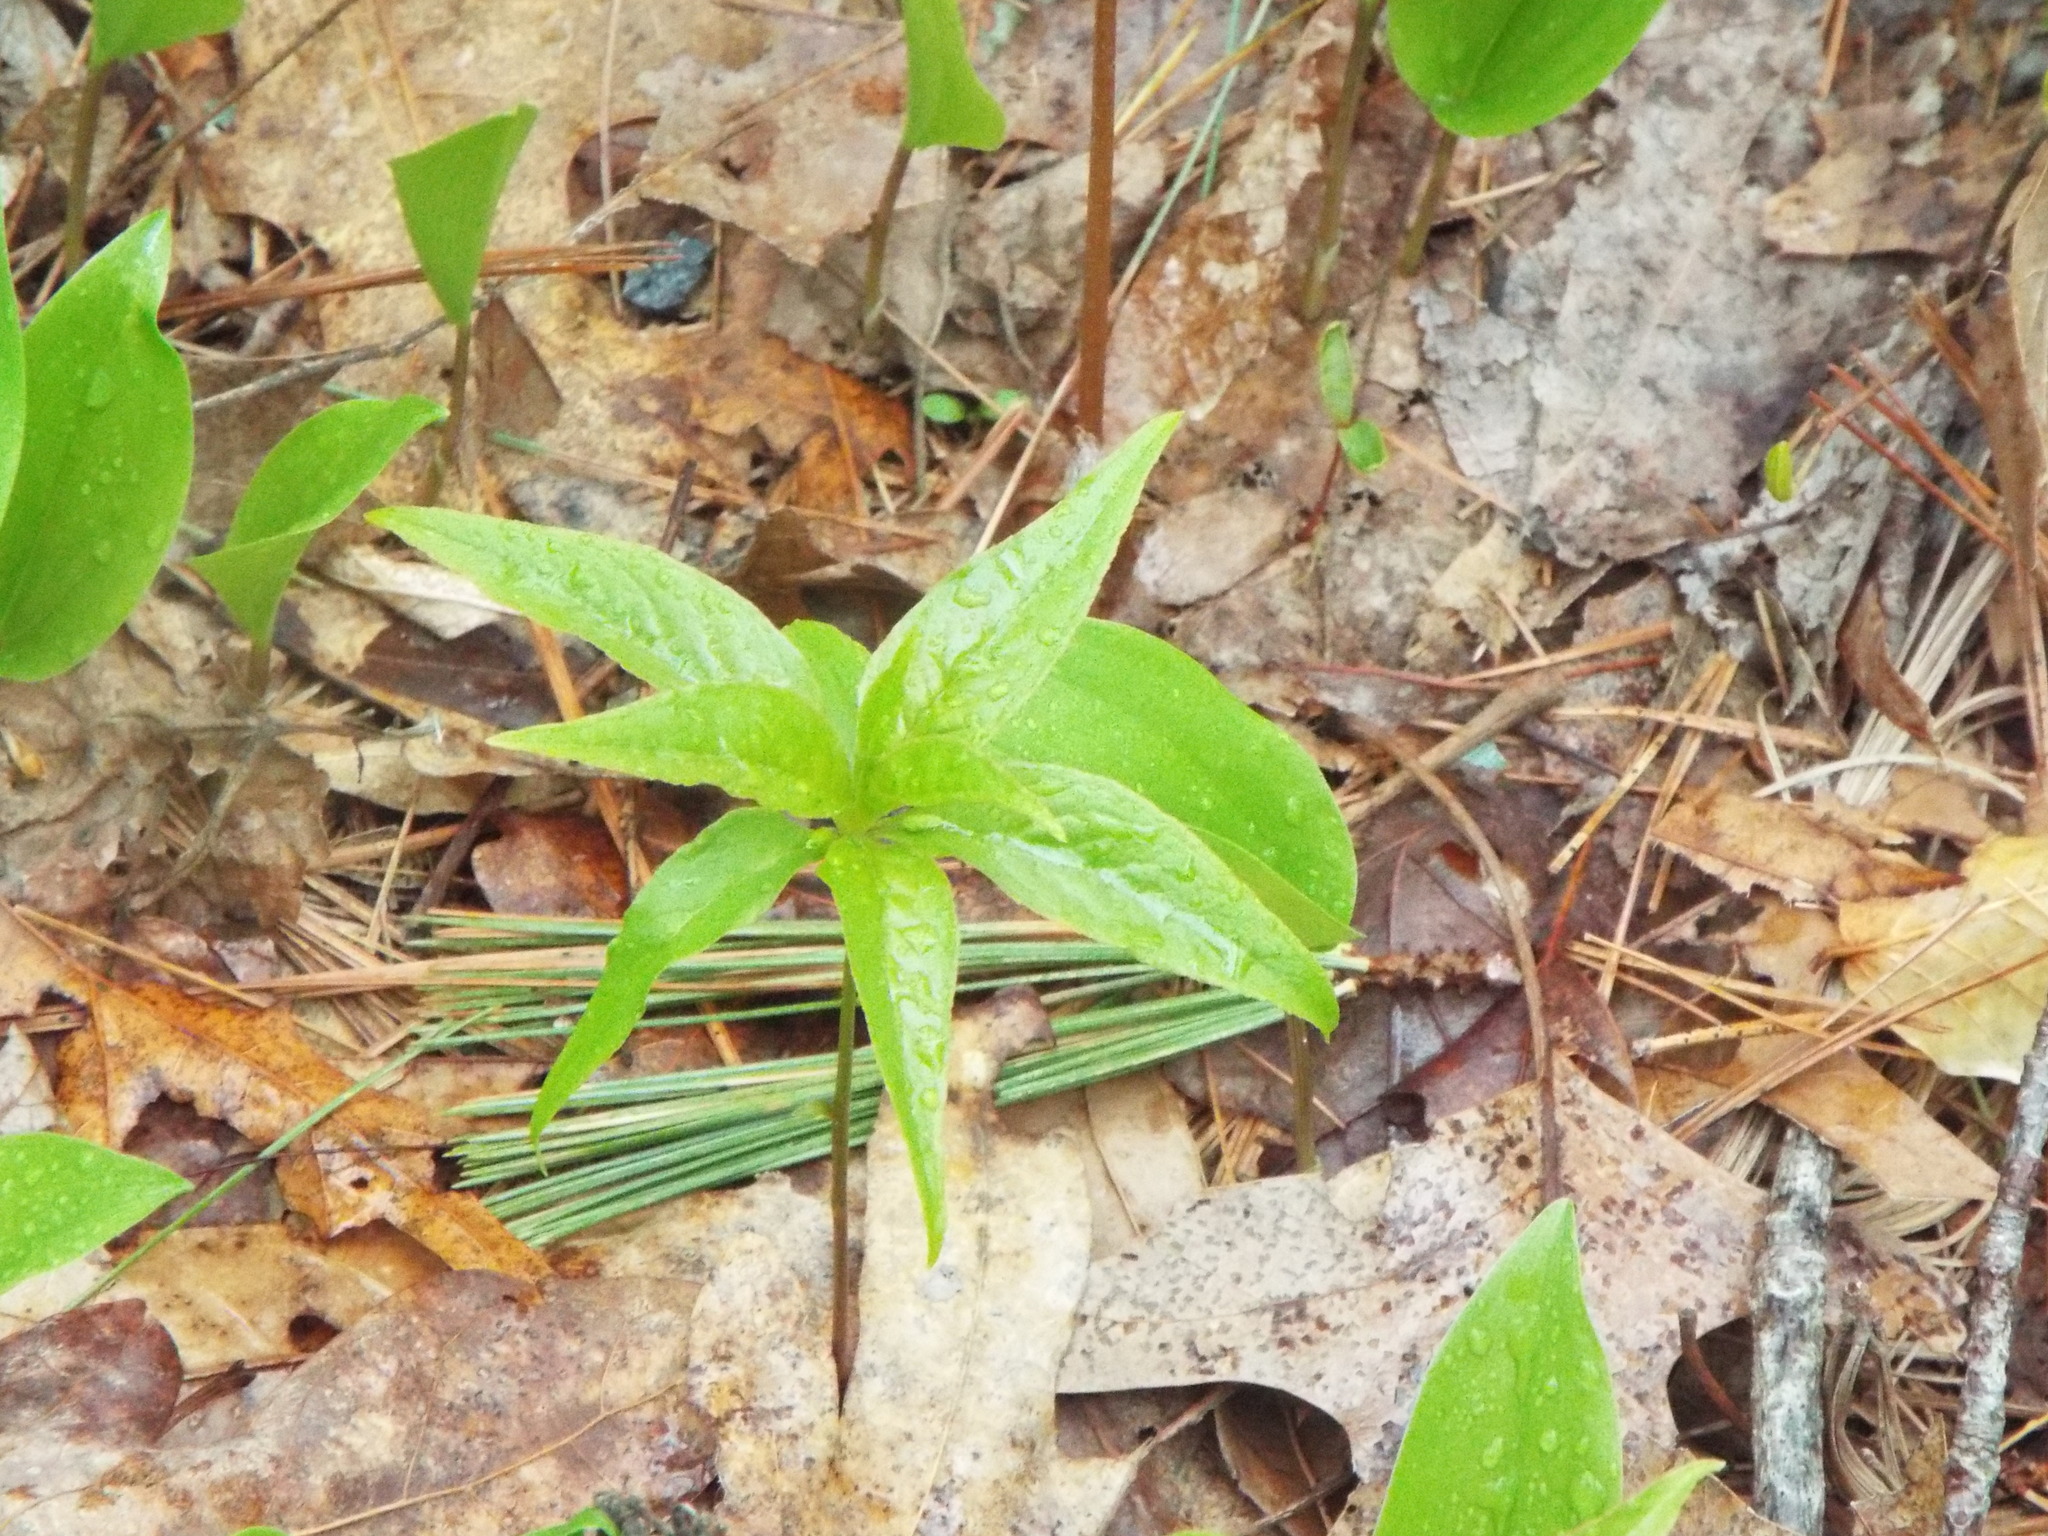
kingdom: Plantae
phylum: Tracheophyta
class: Magnoliopsida
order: Ericales
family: Primulaceae
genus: Lysimachia
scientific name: Lysimachia borealis
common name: American starflower
